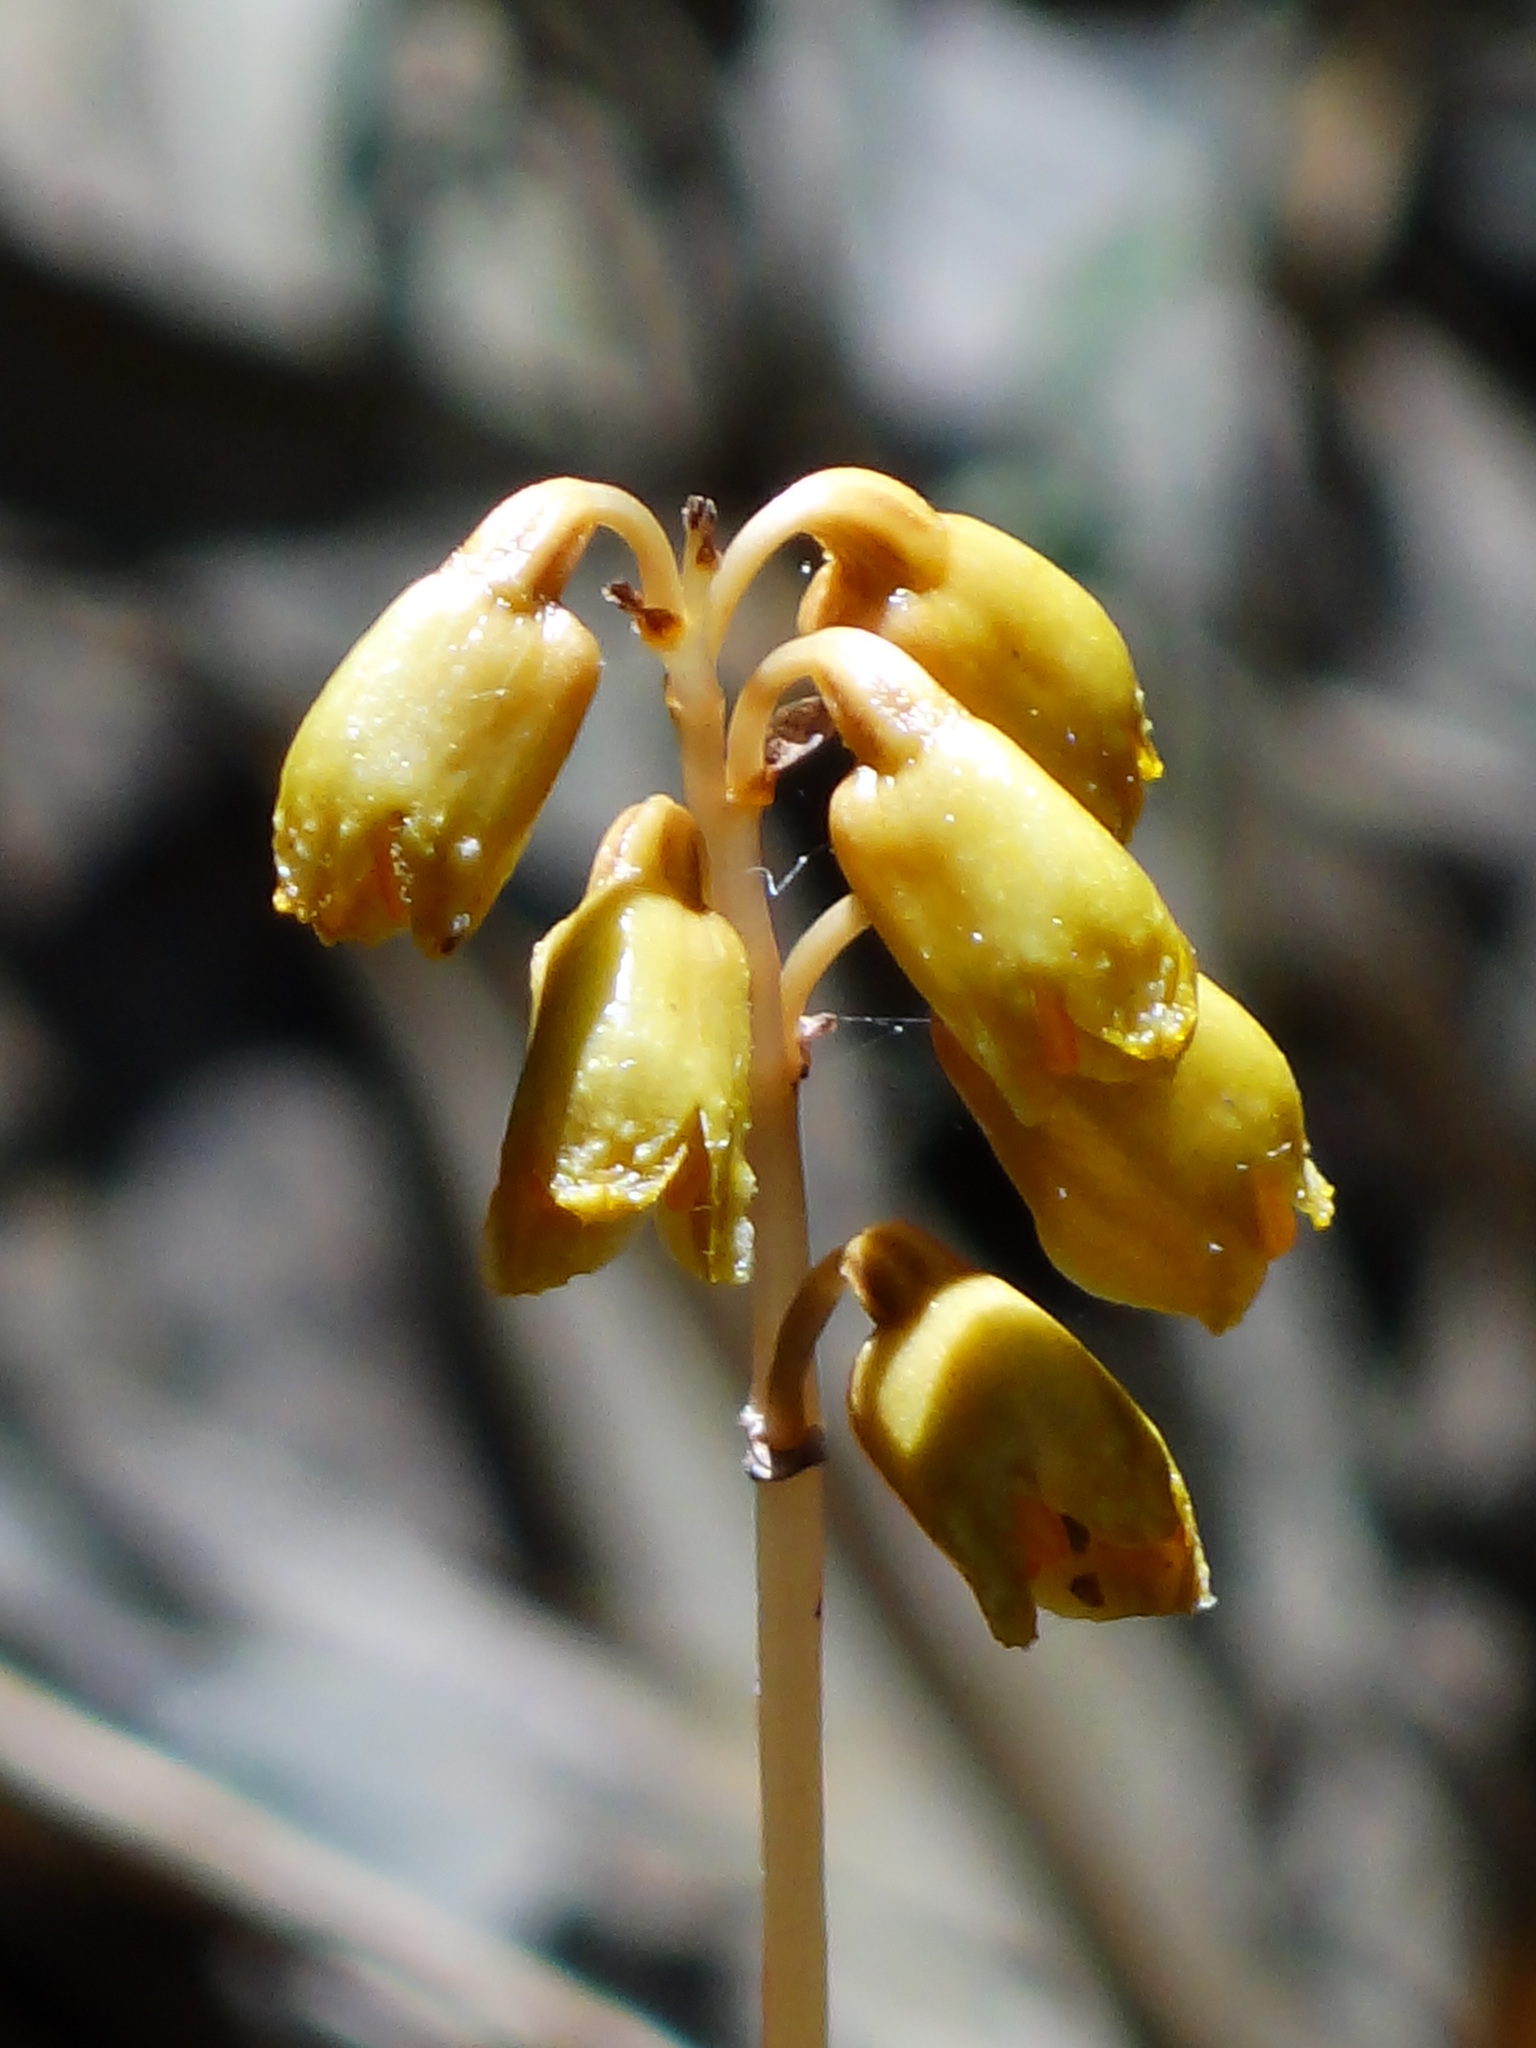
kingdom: Plantae
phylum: Tracheophyta
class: Liliopsida
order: Asparagales
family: Orchidaceae
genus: Gastrodia
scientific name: Gastrodia gracilis
